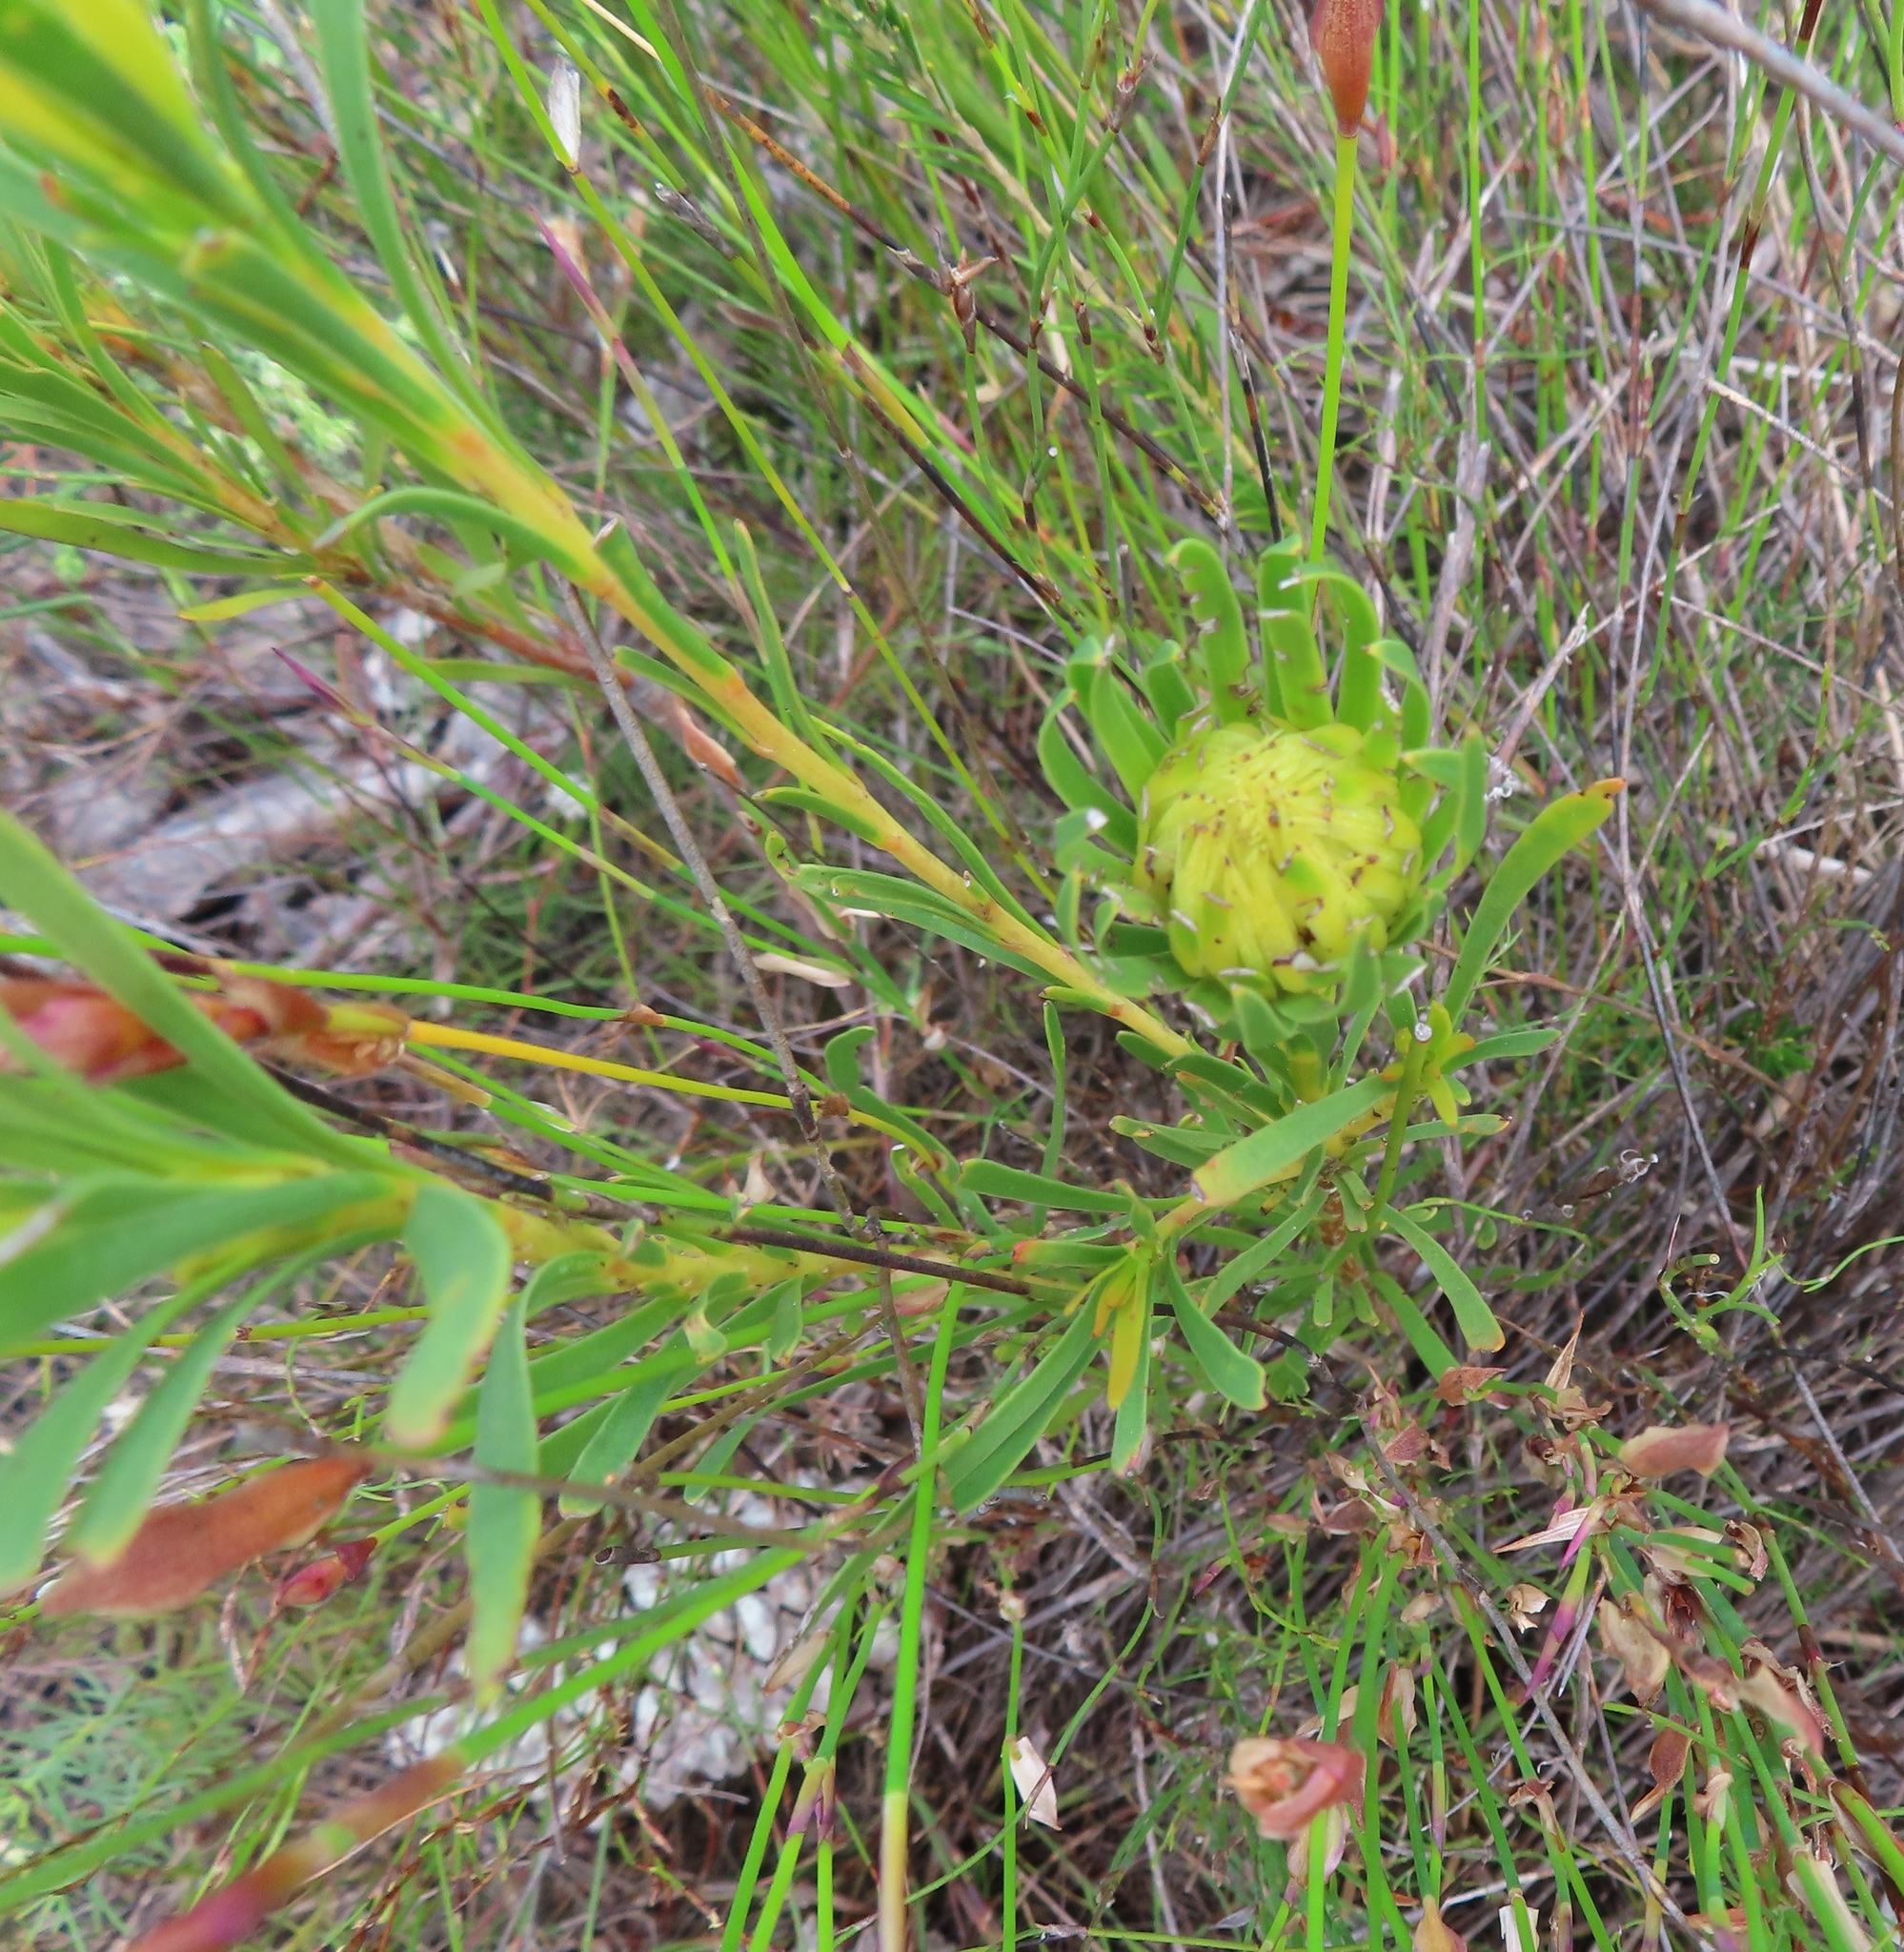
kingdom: Plantae
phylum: Tracheophyta
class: Magnoliopsida
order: Proteales
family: Proteaceae
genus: Aulax
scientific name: Aulax umbellata
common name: Broad-leaf featherbush
